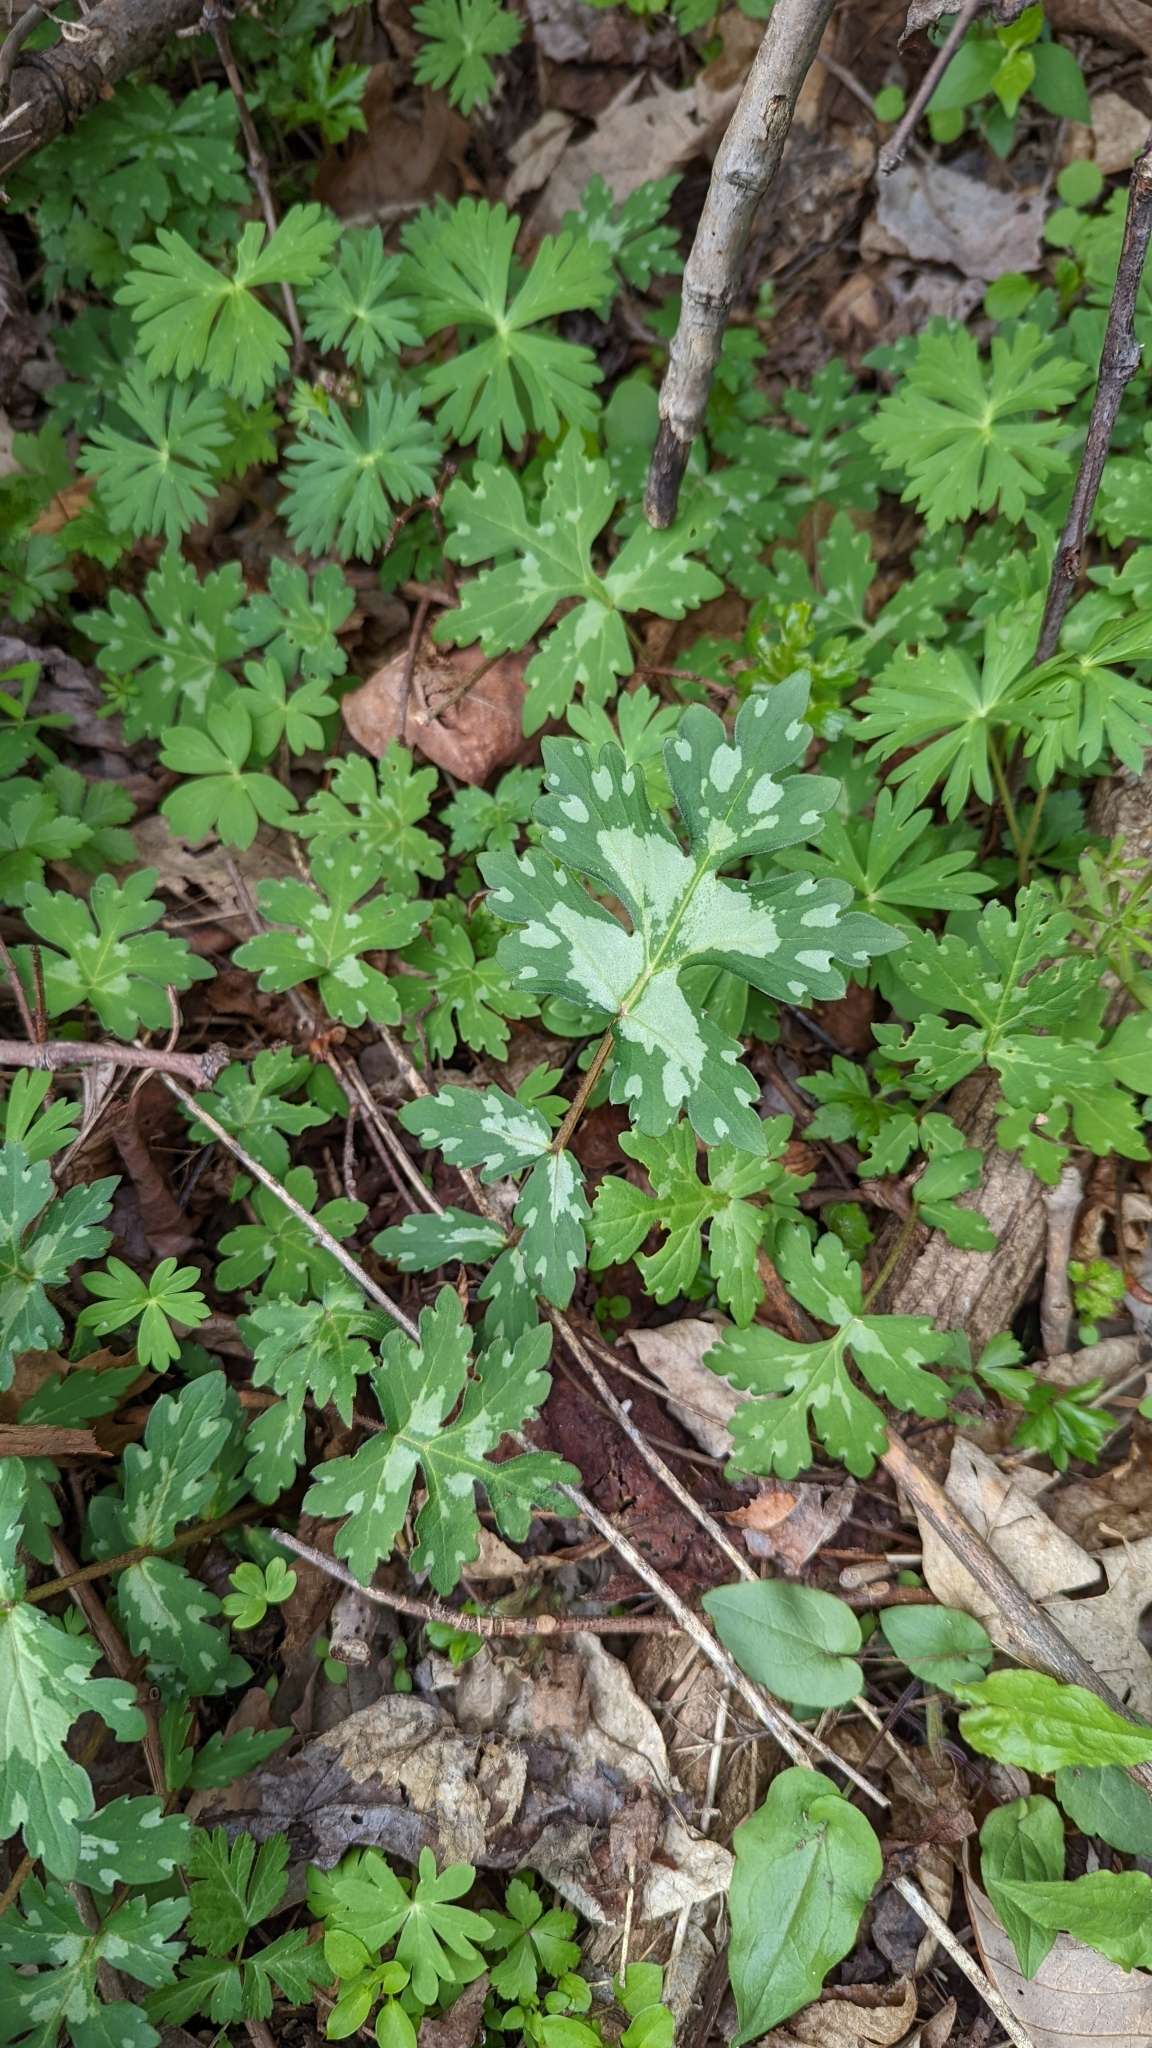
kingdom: Plantae
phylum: Tracheophyta
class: Magnoliopsida
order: Boraginales
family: Hydrophyllaceae
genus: Hydrophyllum
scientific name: Hydrophyllum appendiculatum
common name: Appendaged waterleaf
